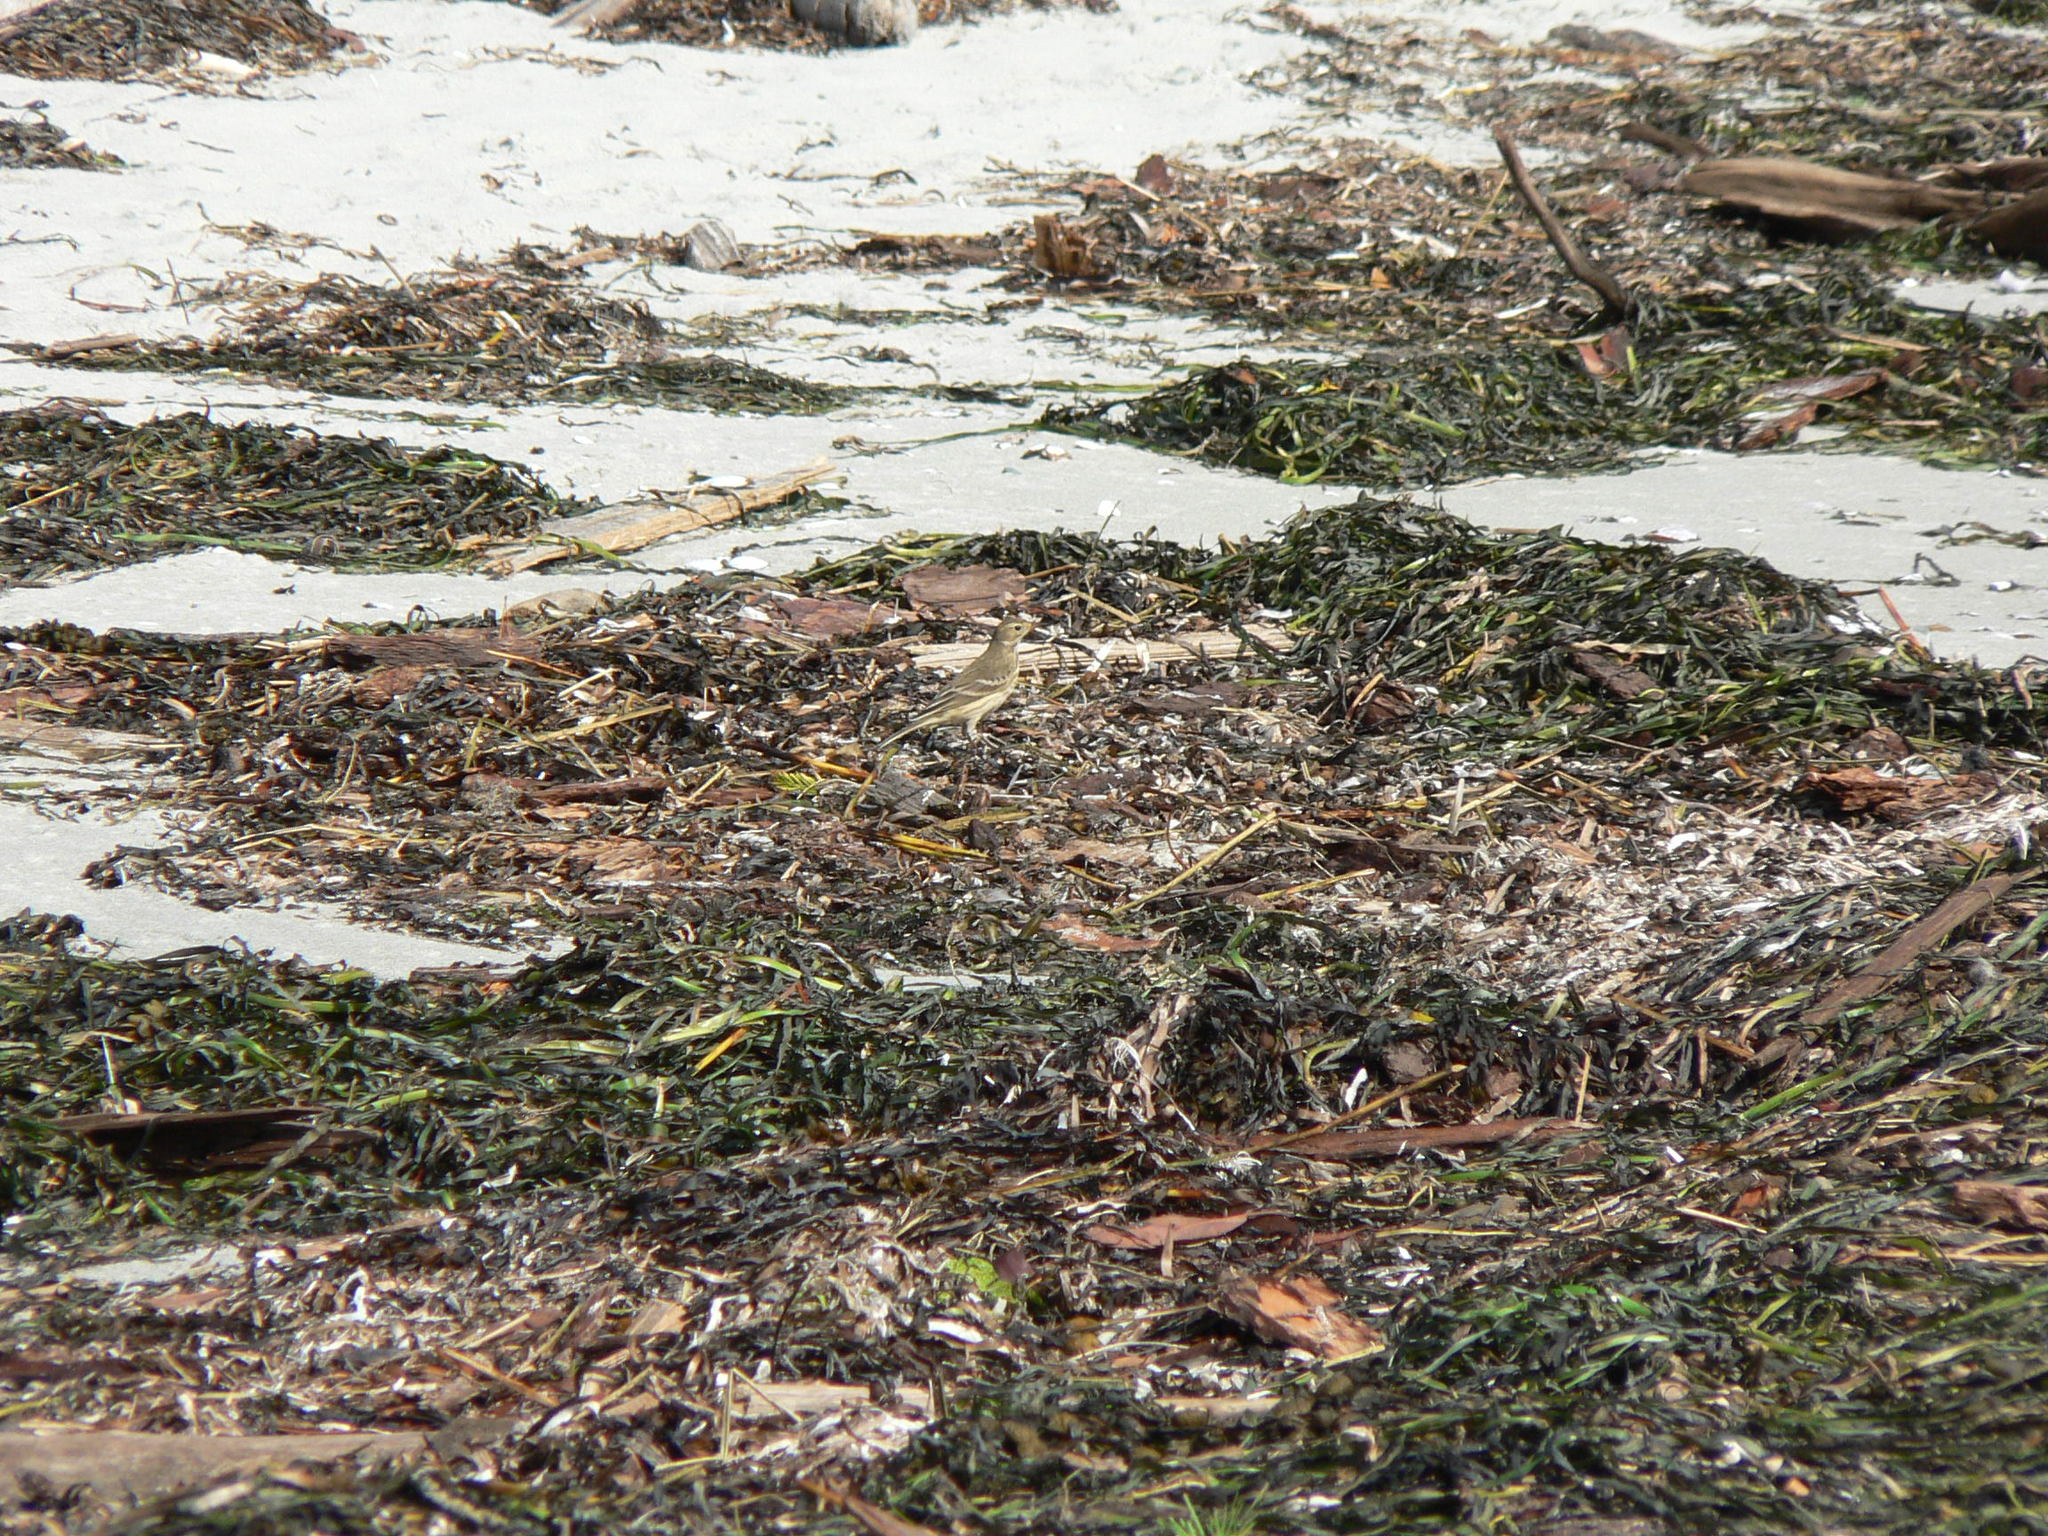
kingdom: Animalia
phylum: Chordata
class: Aves
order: Passeriformes
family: Motacillidae
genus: Anthus
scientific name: Anthus rubescens
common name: Buff-bellied pipit
